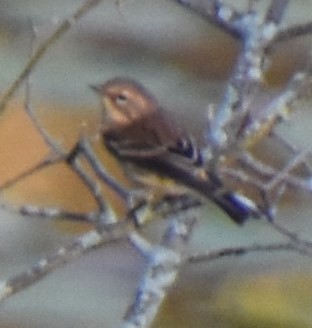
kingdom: Animalia
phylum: Chordata
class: Aves
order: Passeriformes
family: Parulidae
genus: Setophaga
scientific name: Setophaga coronata
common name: Myrtle warbler
